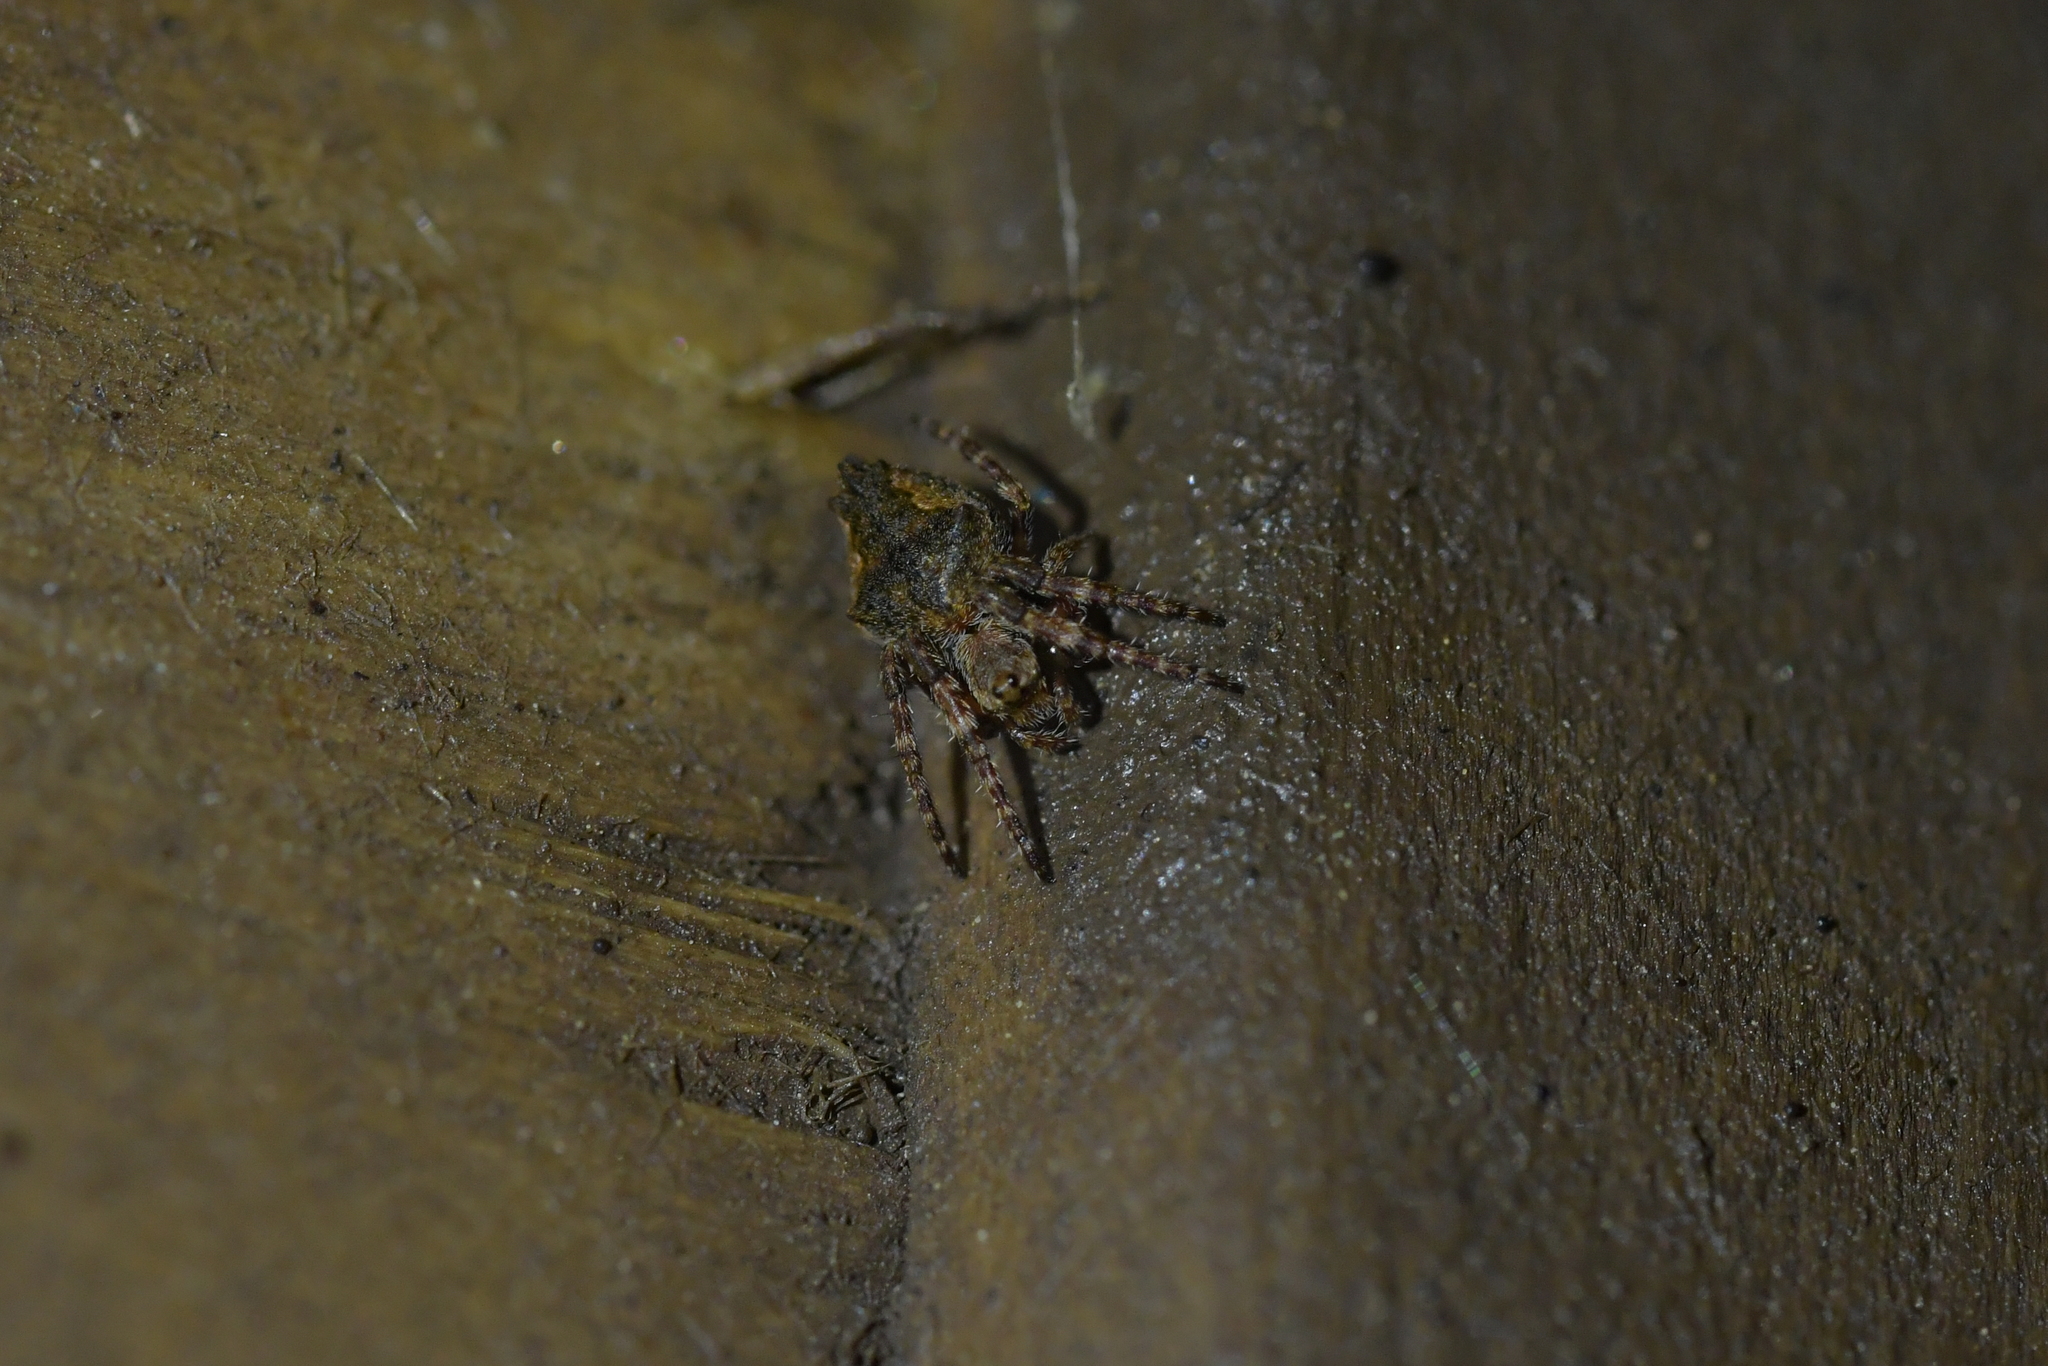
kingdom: Animalia
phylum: Arthropoda
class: Arachnida
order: Araneae
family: Araneidae
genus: Eriophora
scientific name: Eriophora pustulosa
